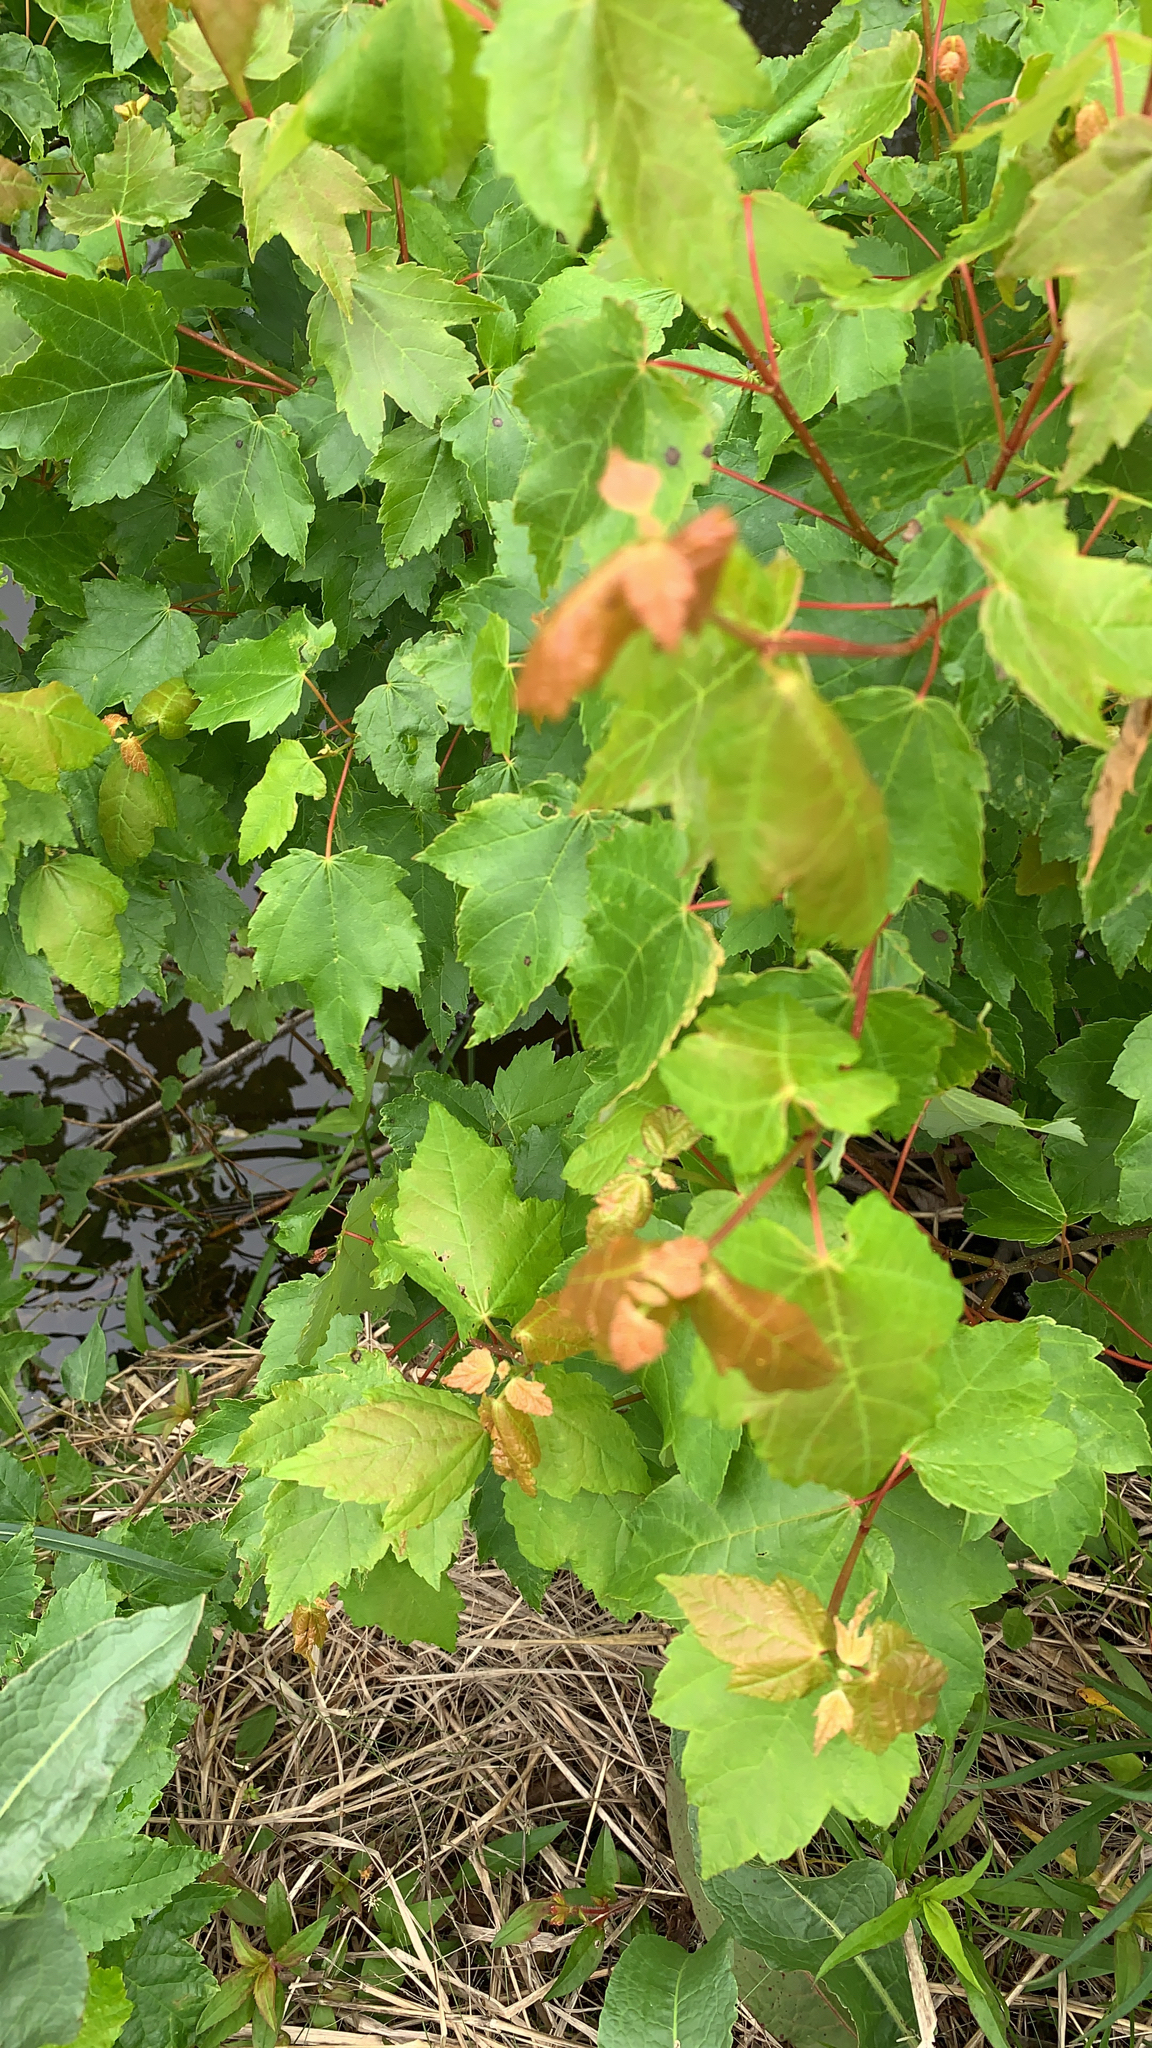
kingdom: Plantae
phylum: Tracheophyta
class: Magnoliopsida
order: Sapindales
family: Sapindaceae
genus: Acer
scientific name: Acer rubrum
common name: Red maple
